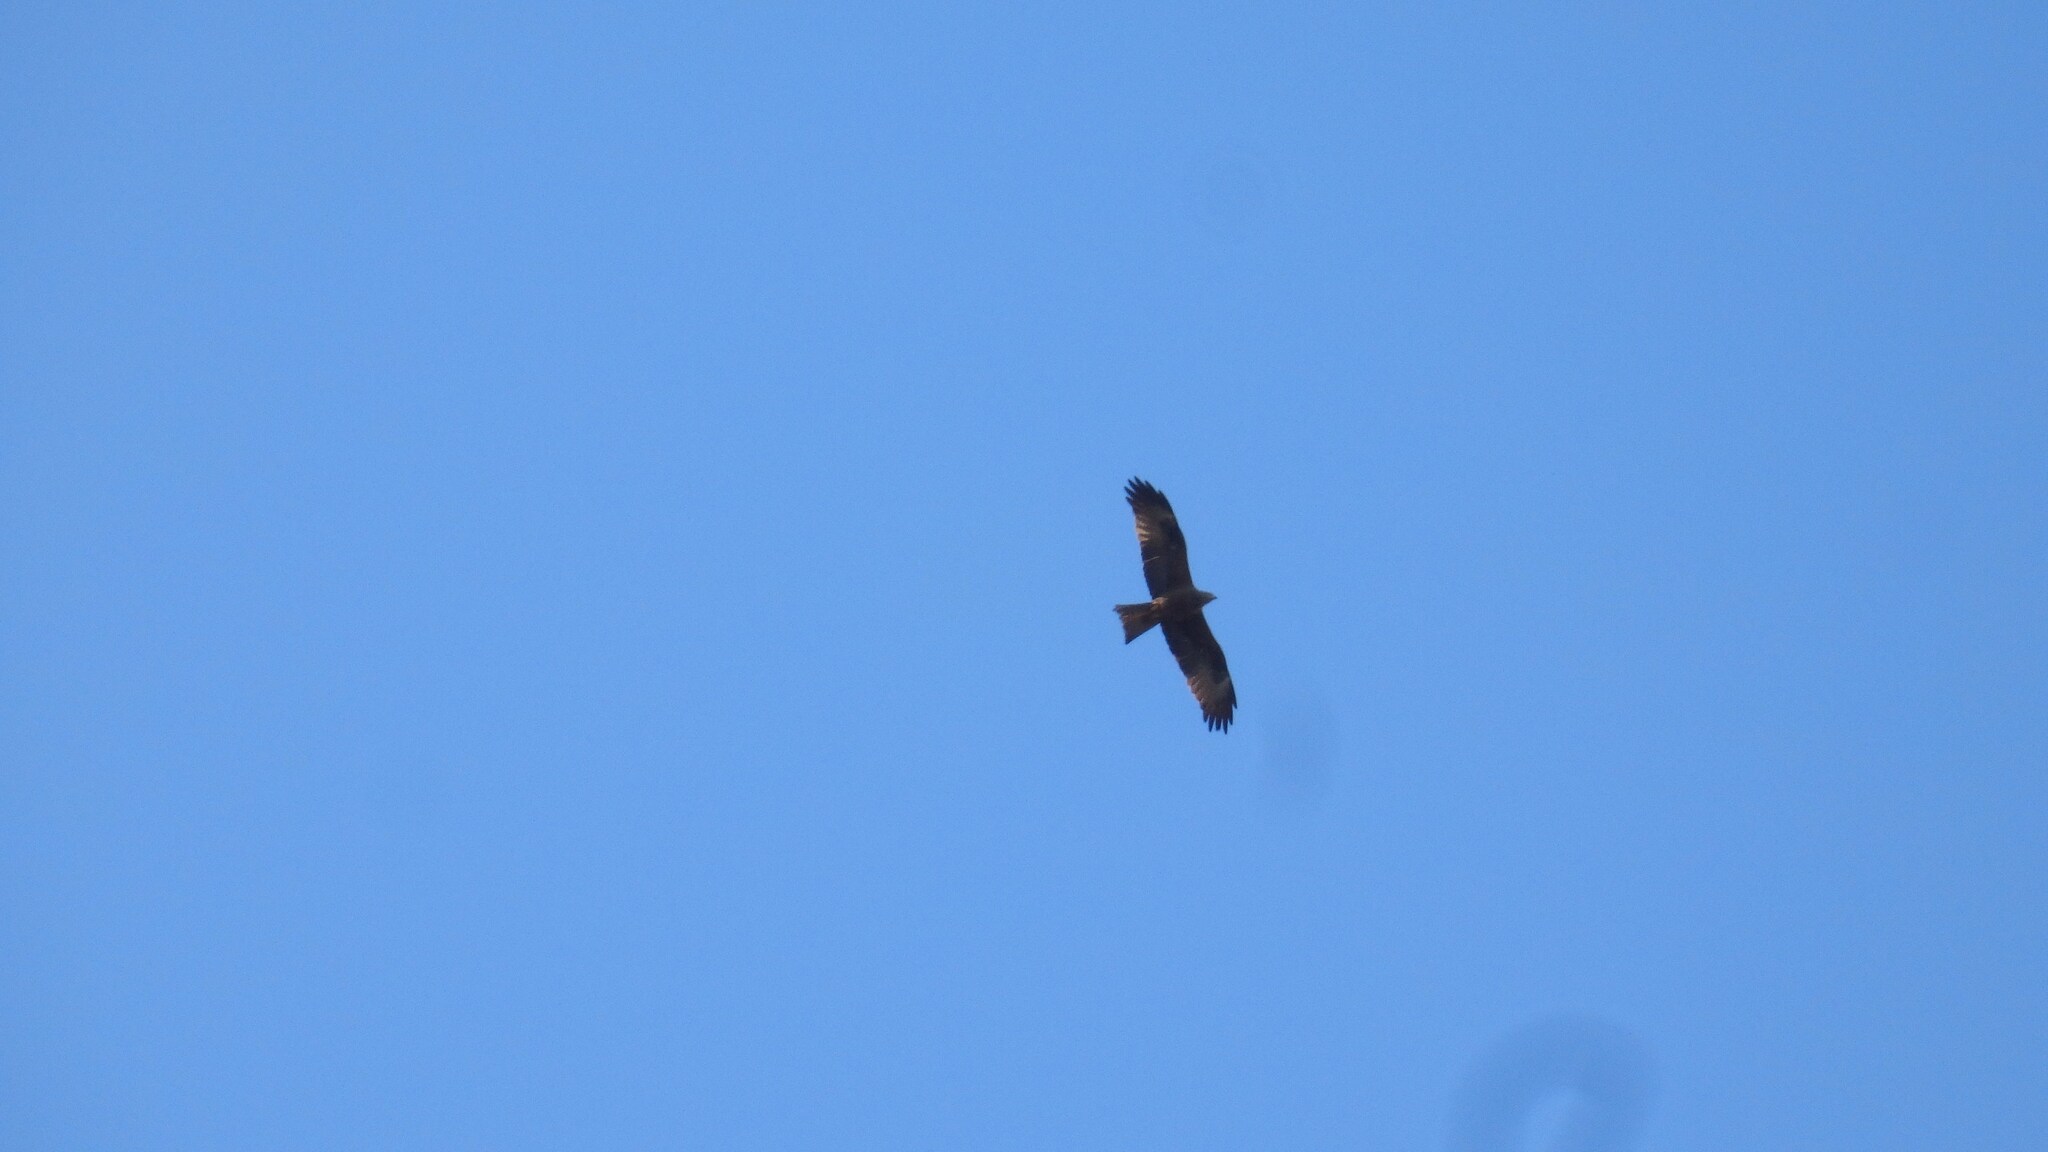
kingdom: Animalia
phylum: Chordata
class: Aves
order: Accipitriformes
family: Accipitridae
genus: Milvus
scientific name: Milvus milvus
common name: Red kite
